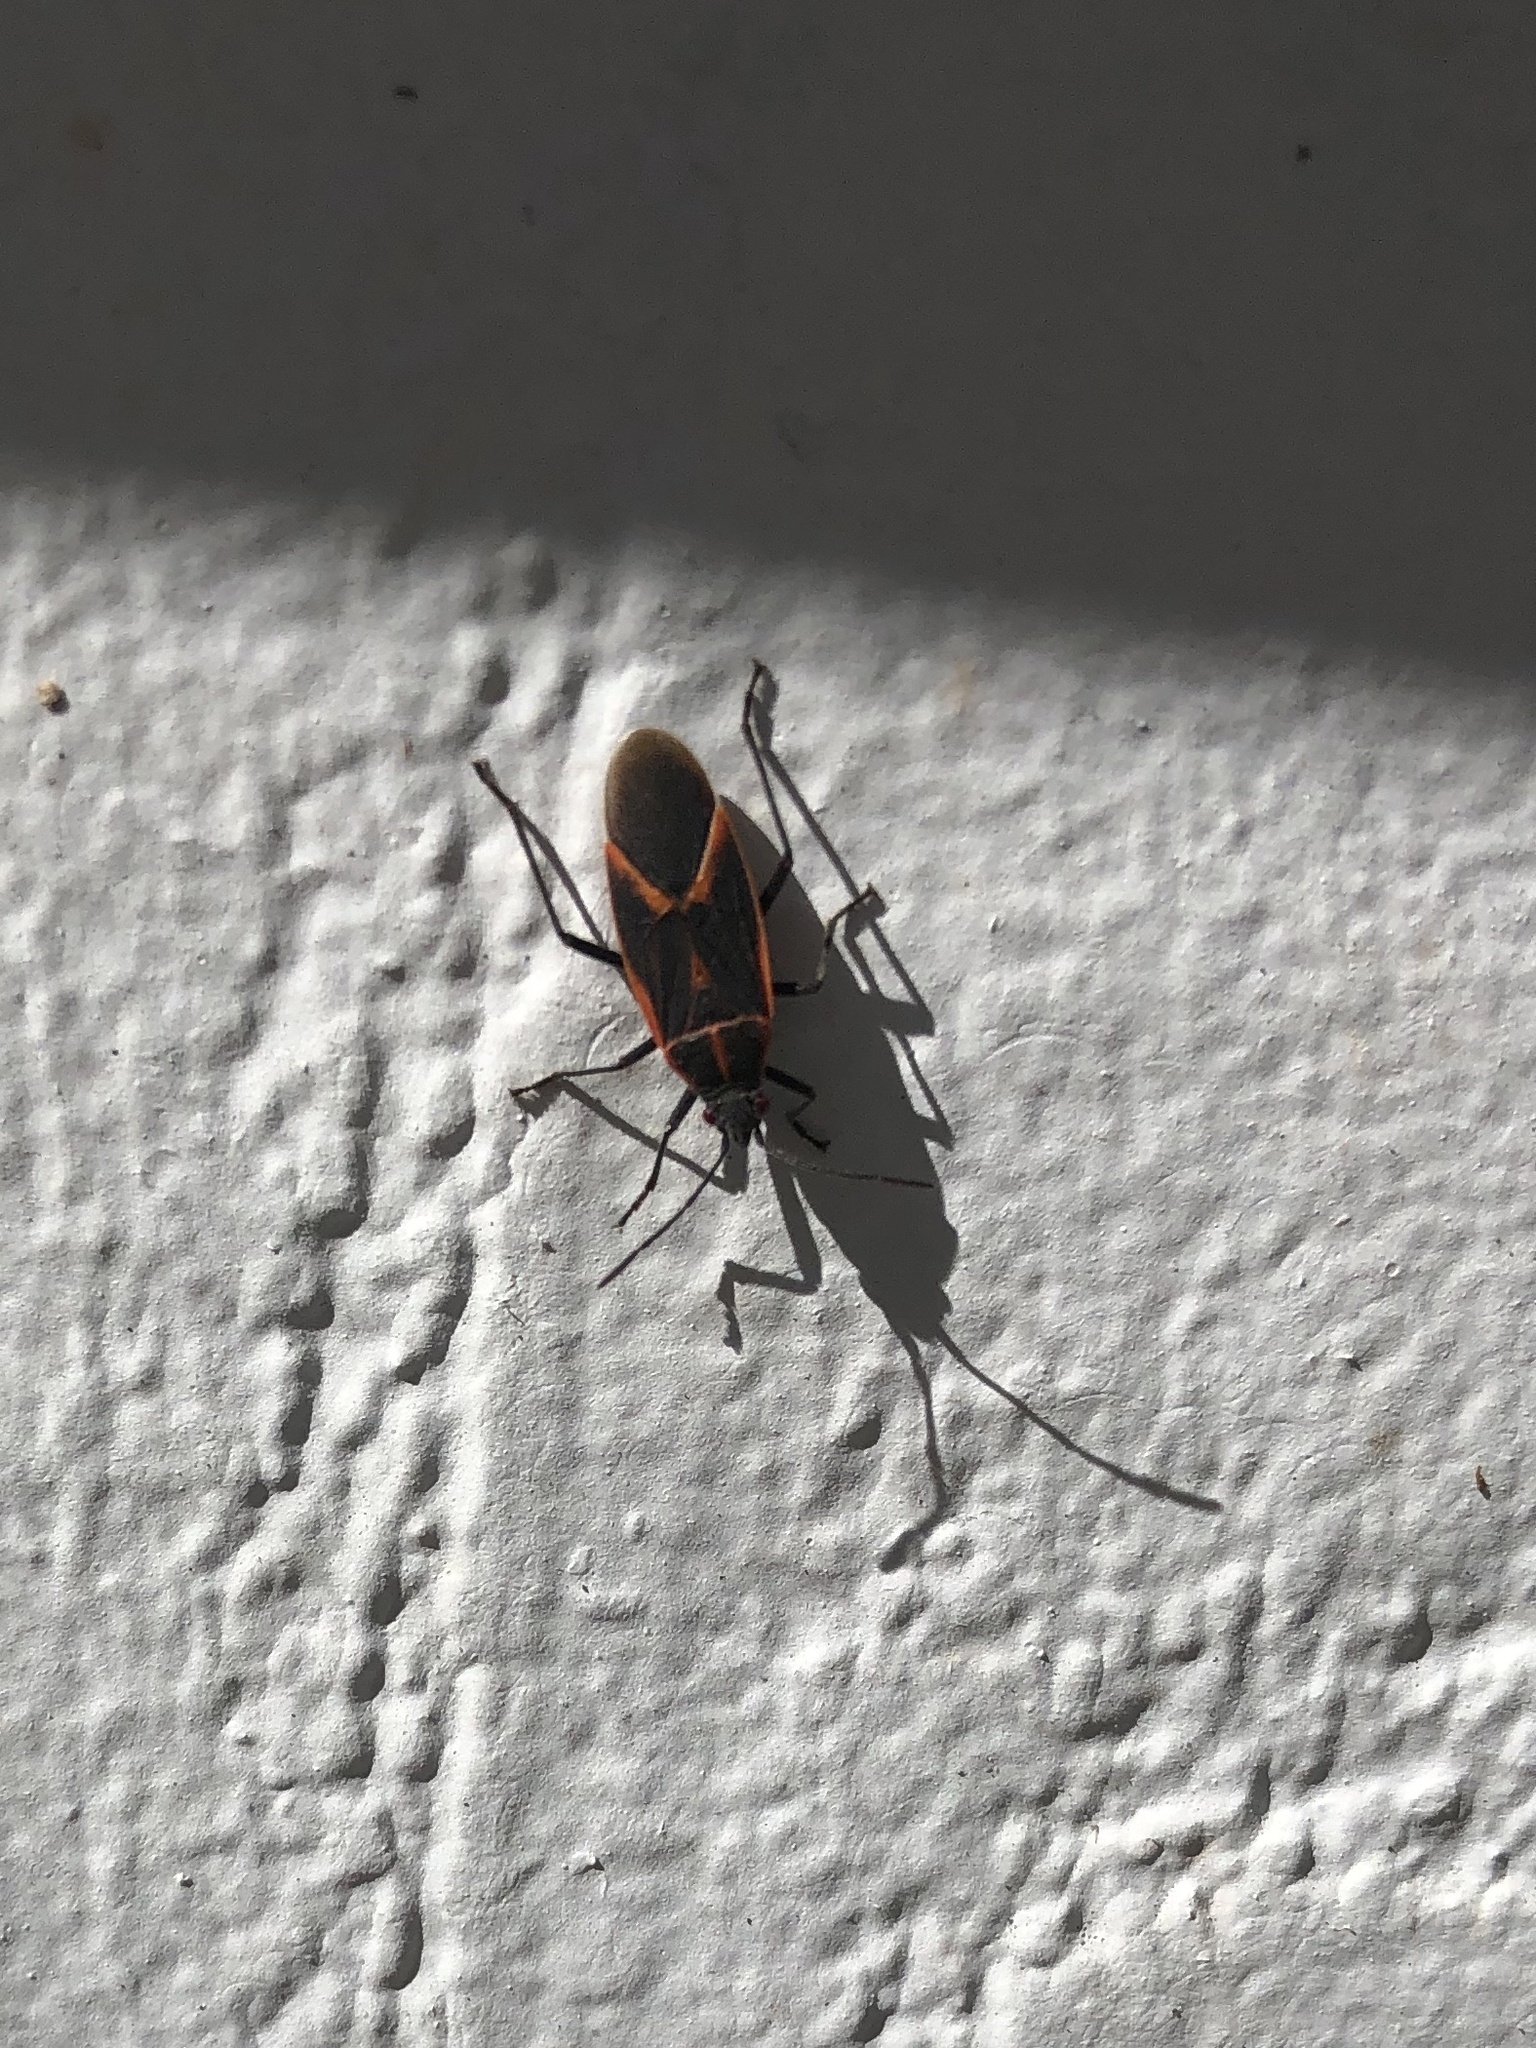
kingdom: Animalia
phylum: Arthropoda
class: Insecta
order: Hemiptera
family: Rhopalidae
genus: Boisea
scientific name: Boisea trivittata
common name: Boxelder bug
